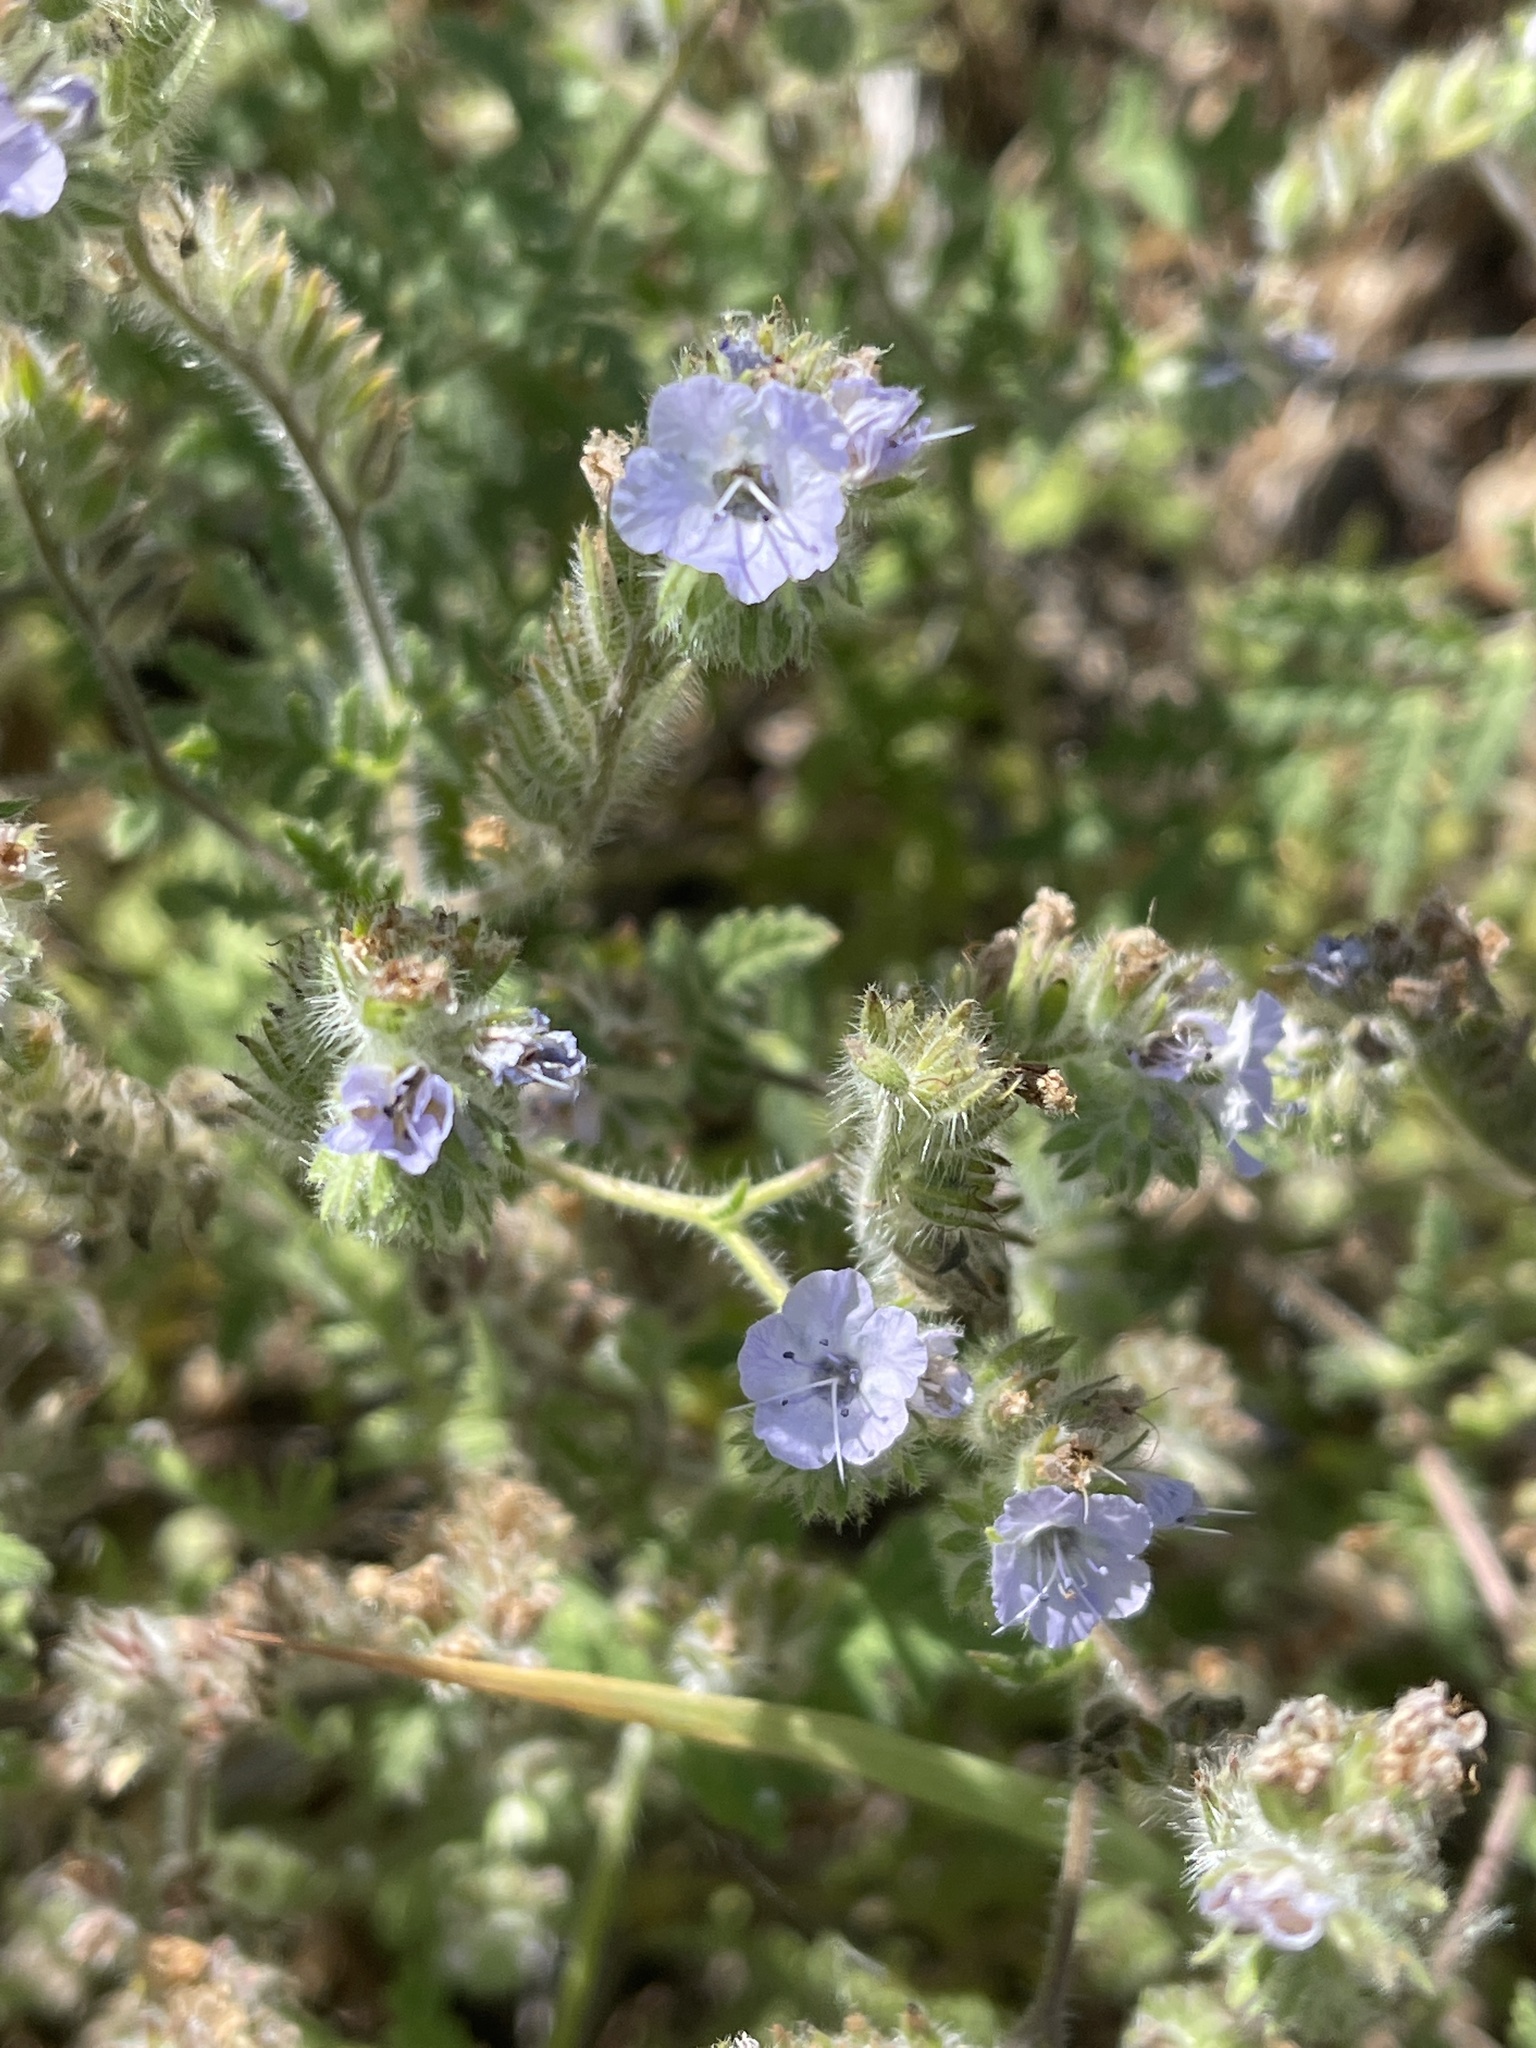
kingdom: Plantae
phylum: Tracheophyta
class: Magnoliopsida
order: Boraginales
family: Hydrophyllaceae
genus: Phacelia
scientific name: Phacelia distans
